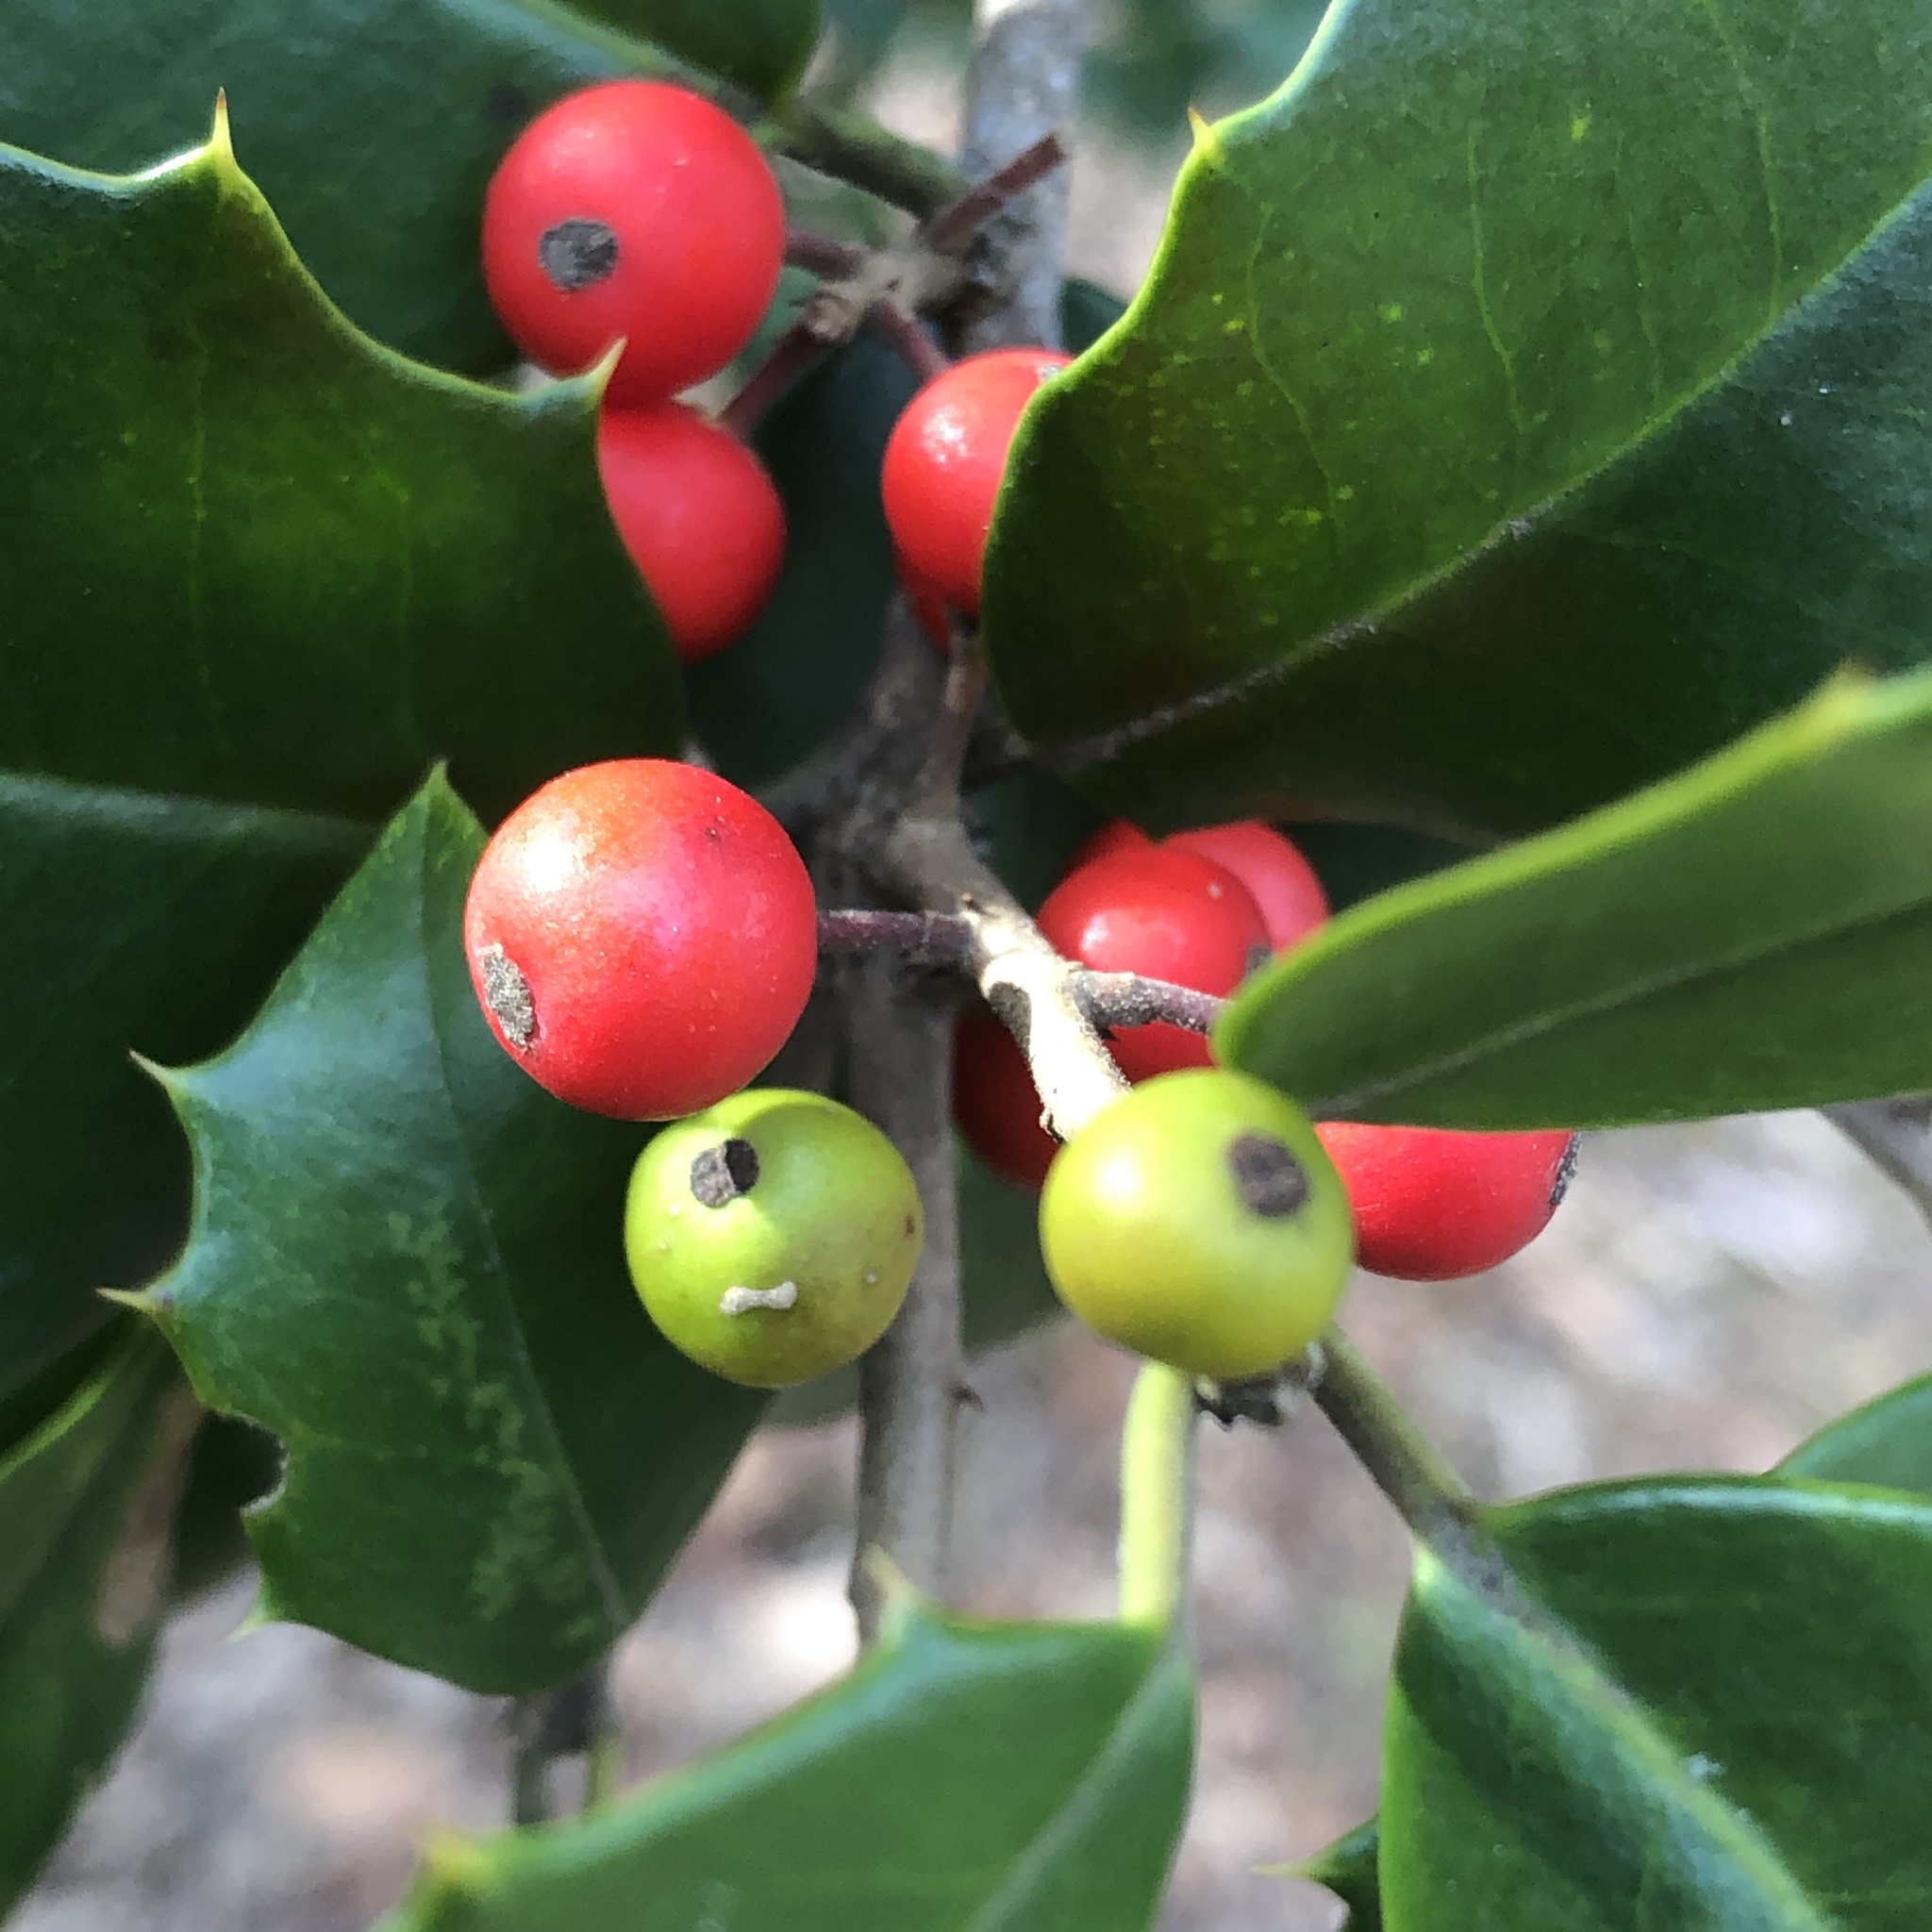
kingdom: Animalia
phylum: Arthropoda
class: Insecta
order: Diptera
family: Cecidomyiidae
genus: Asphondylia
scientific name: Asphondylia ilicicola
